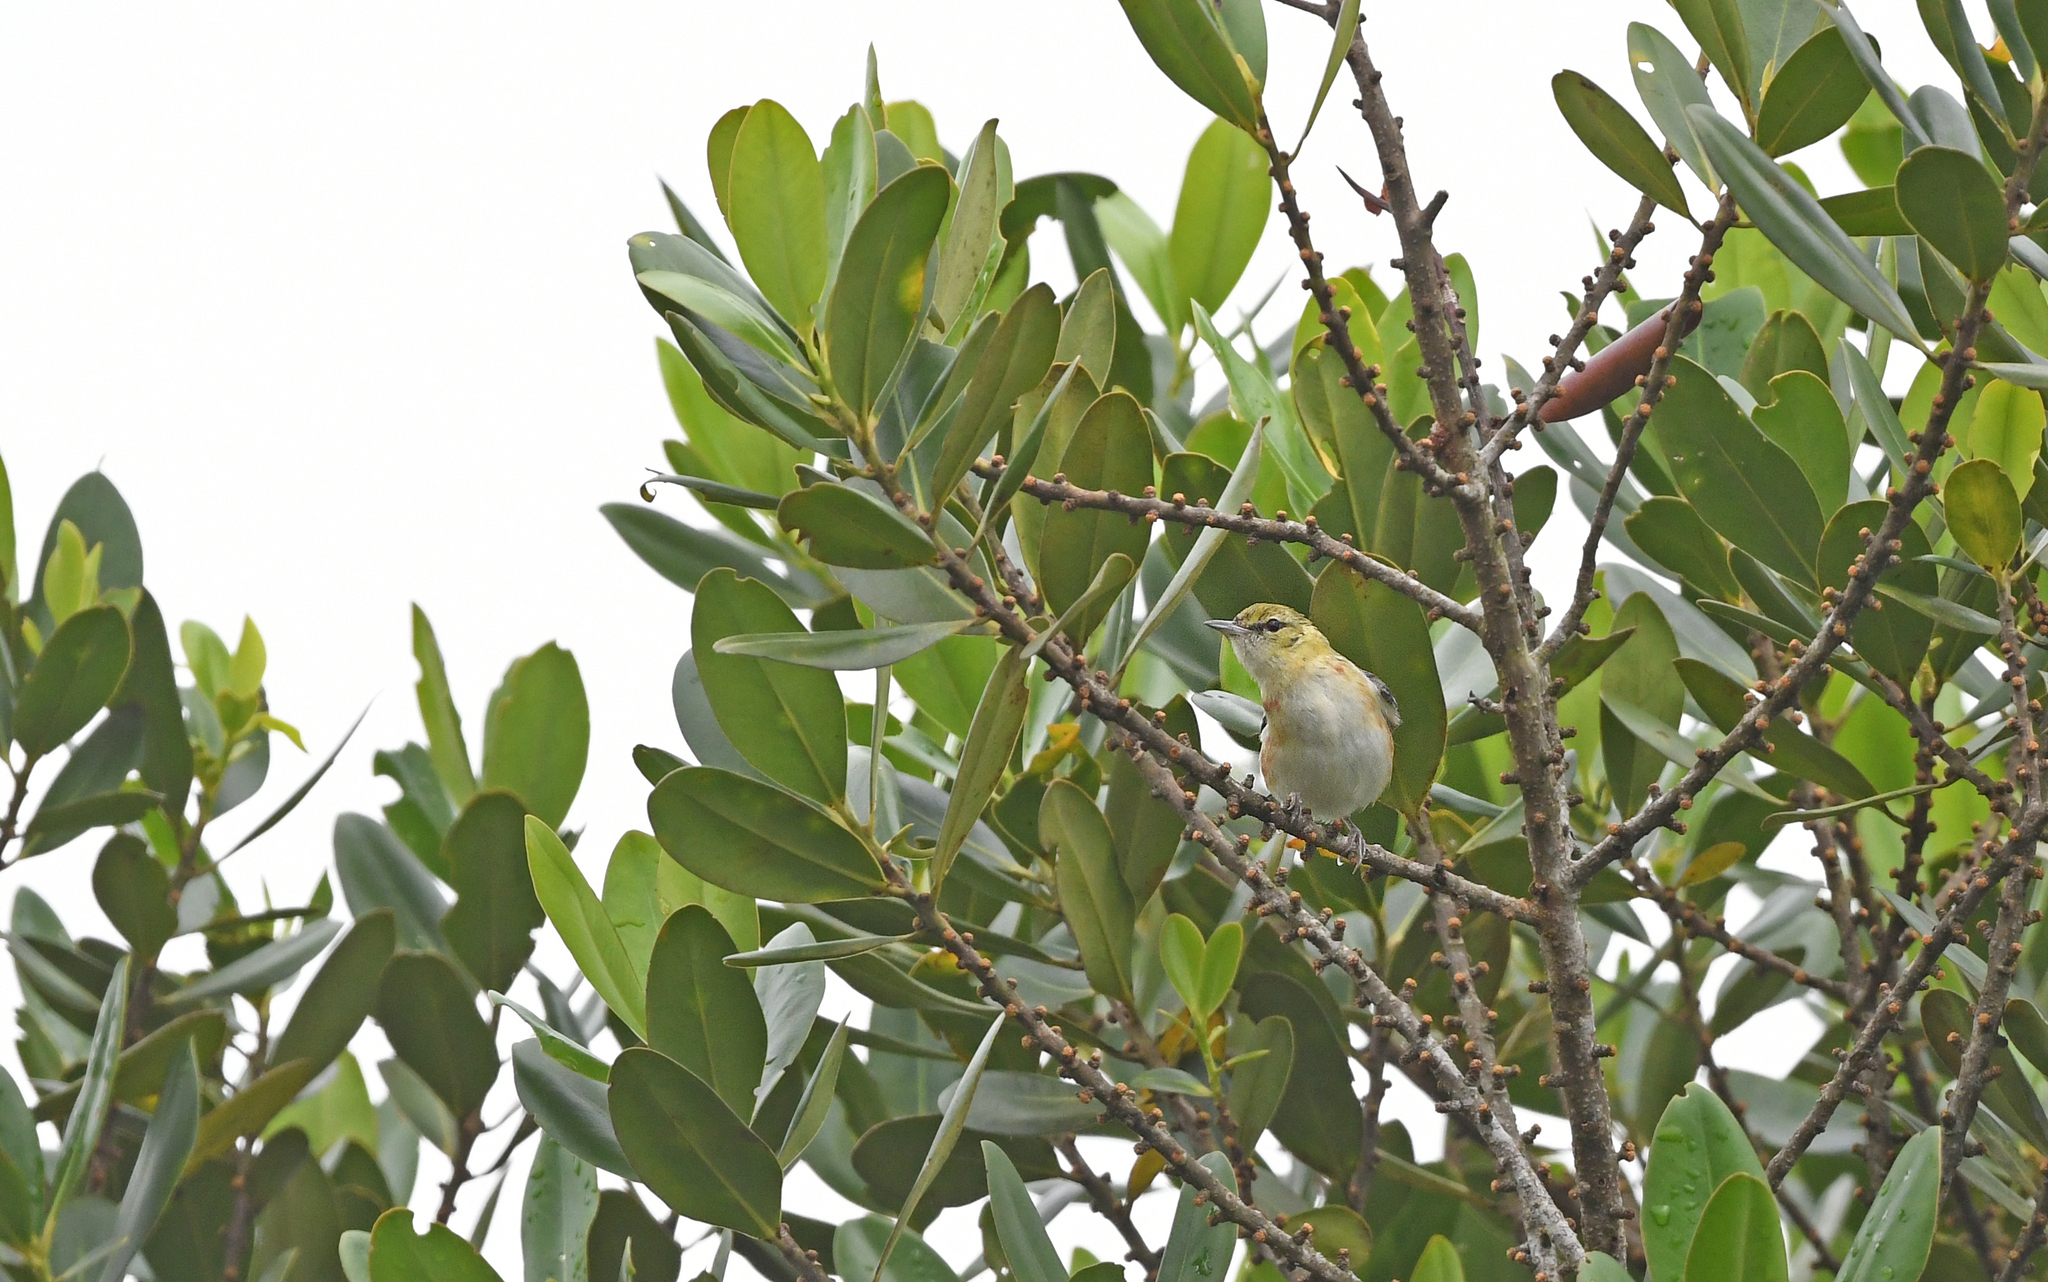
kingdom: Animalia
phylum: Chordata
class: Aves
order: Passeriformes
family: Parulidae
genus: Setophaga
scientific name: Setophaga castanea
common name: Bay-breasted warbler
